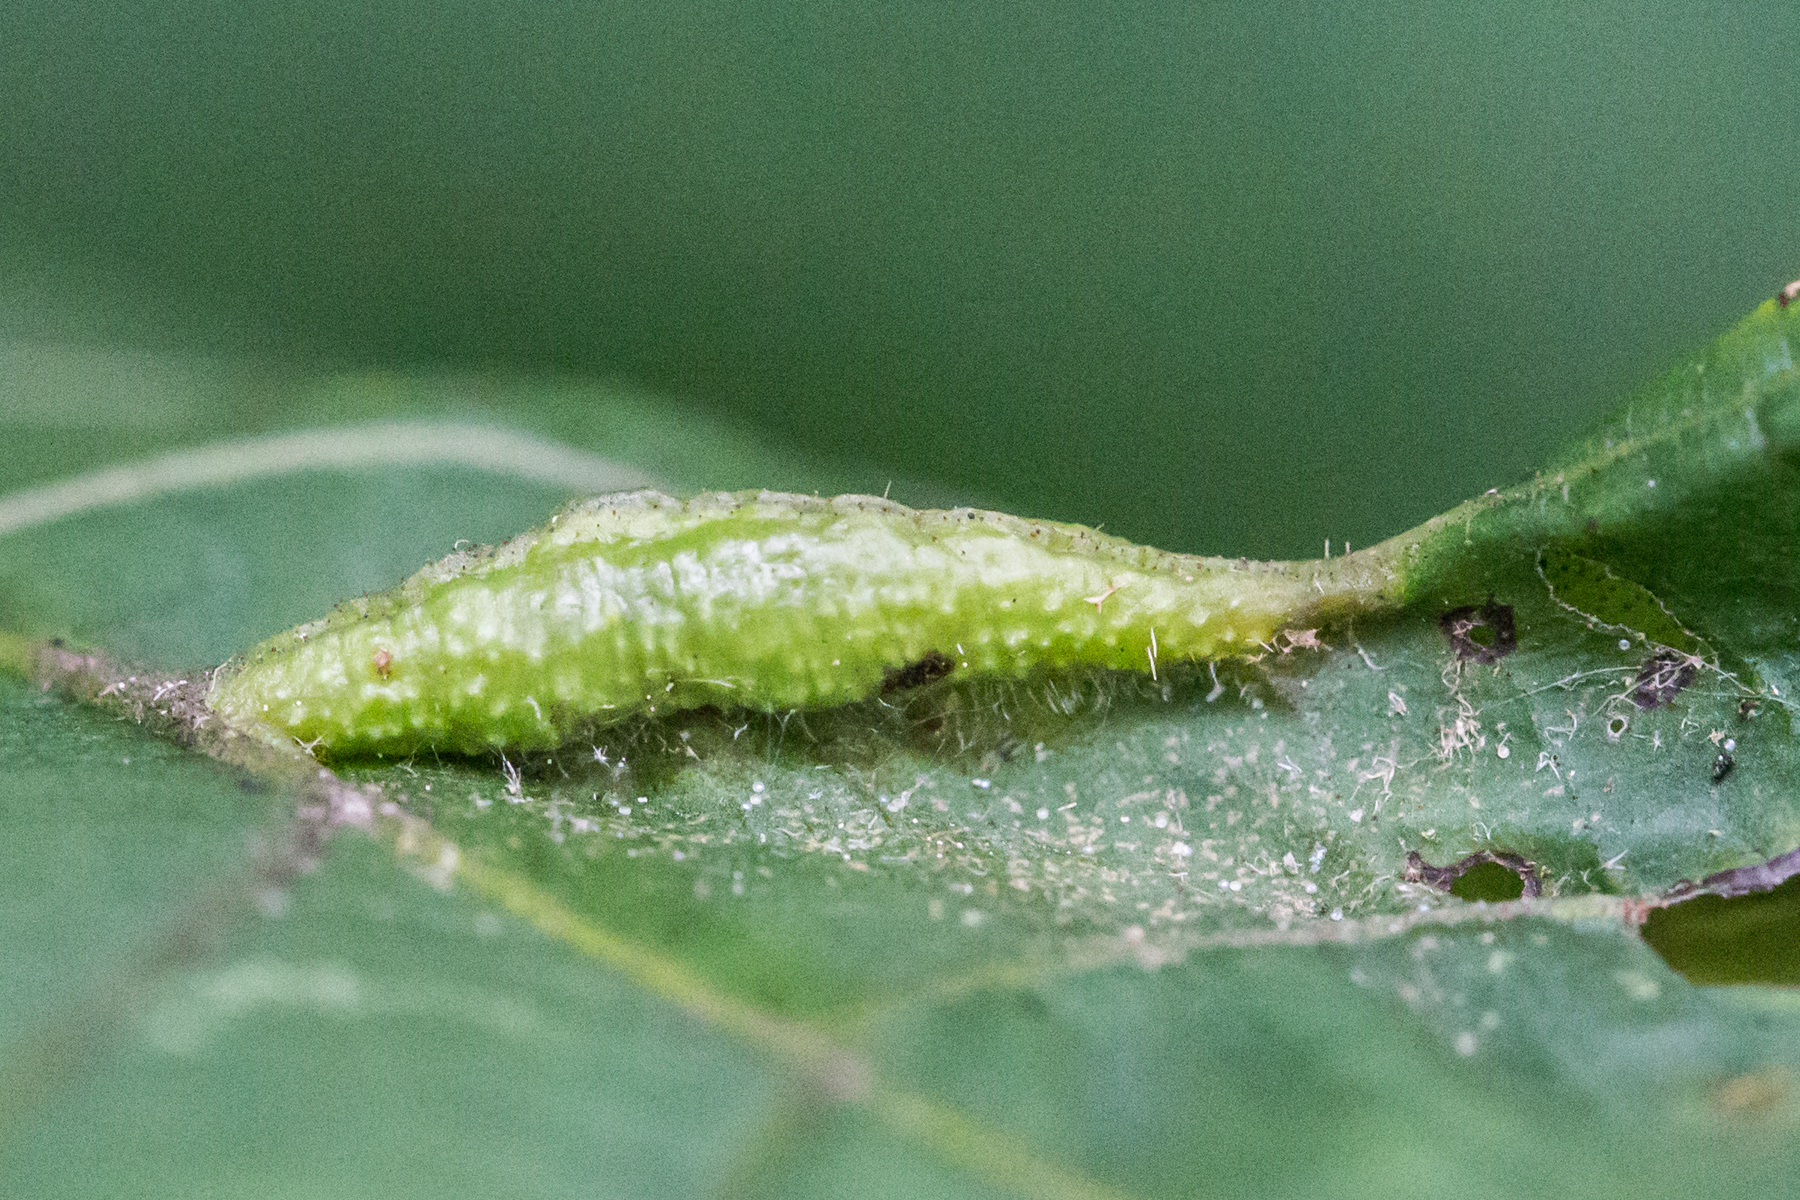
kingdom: Animalia
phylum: Arthropoda
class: Insecta
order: Hemiptera
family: Phylloxeridae
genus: Phylloxera
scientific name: Phylloxera caryaevenae
